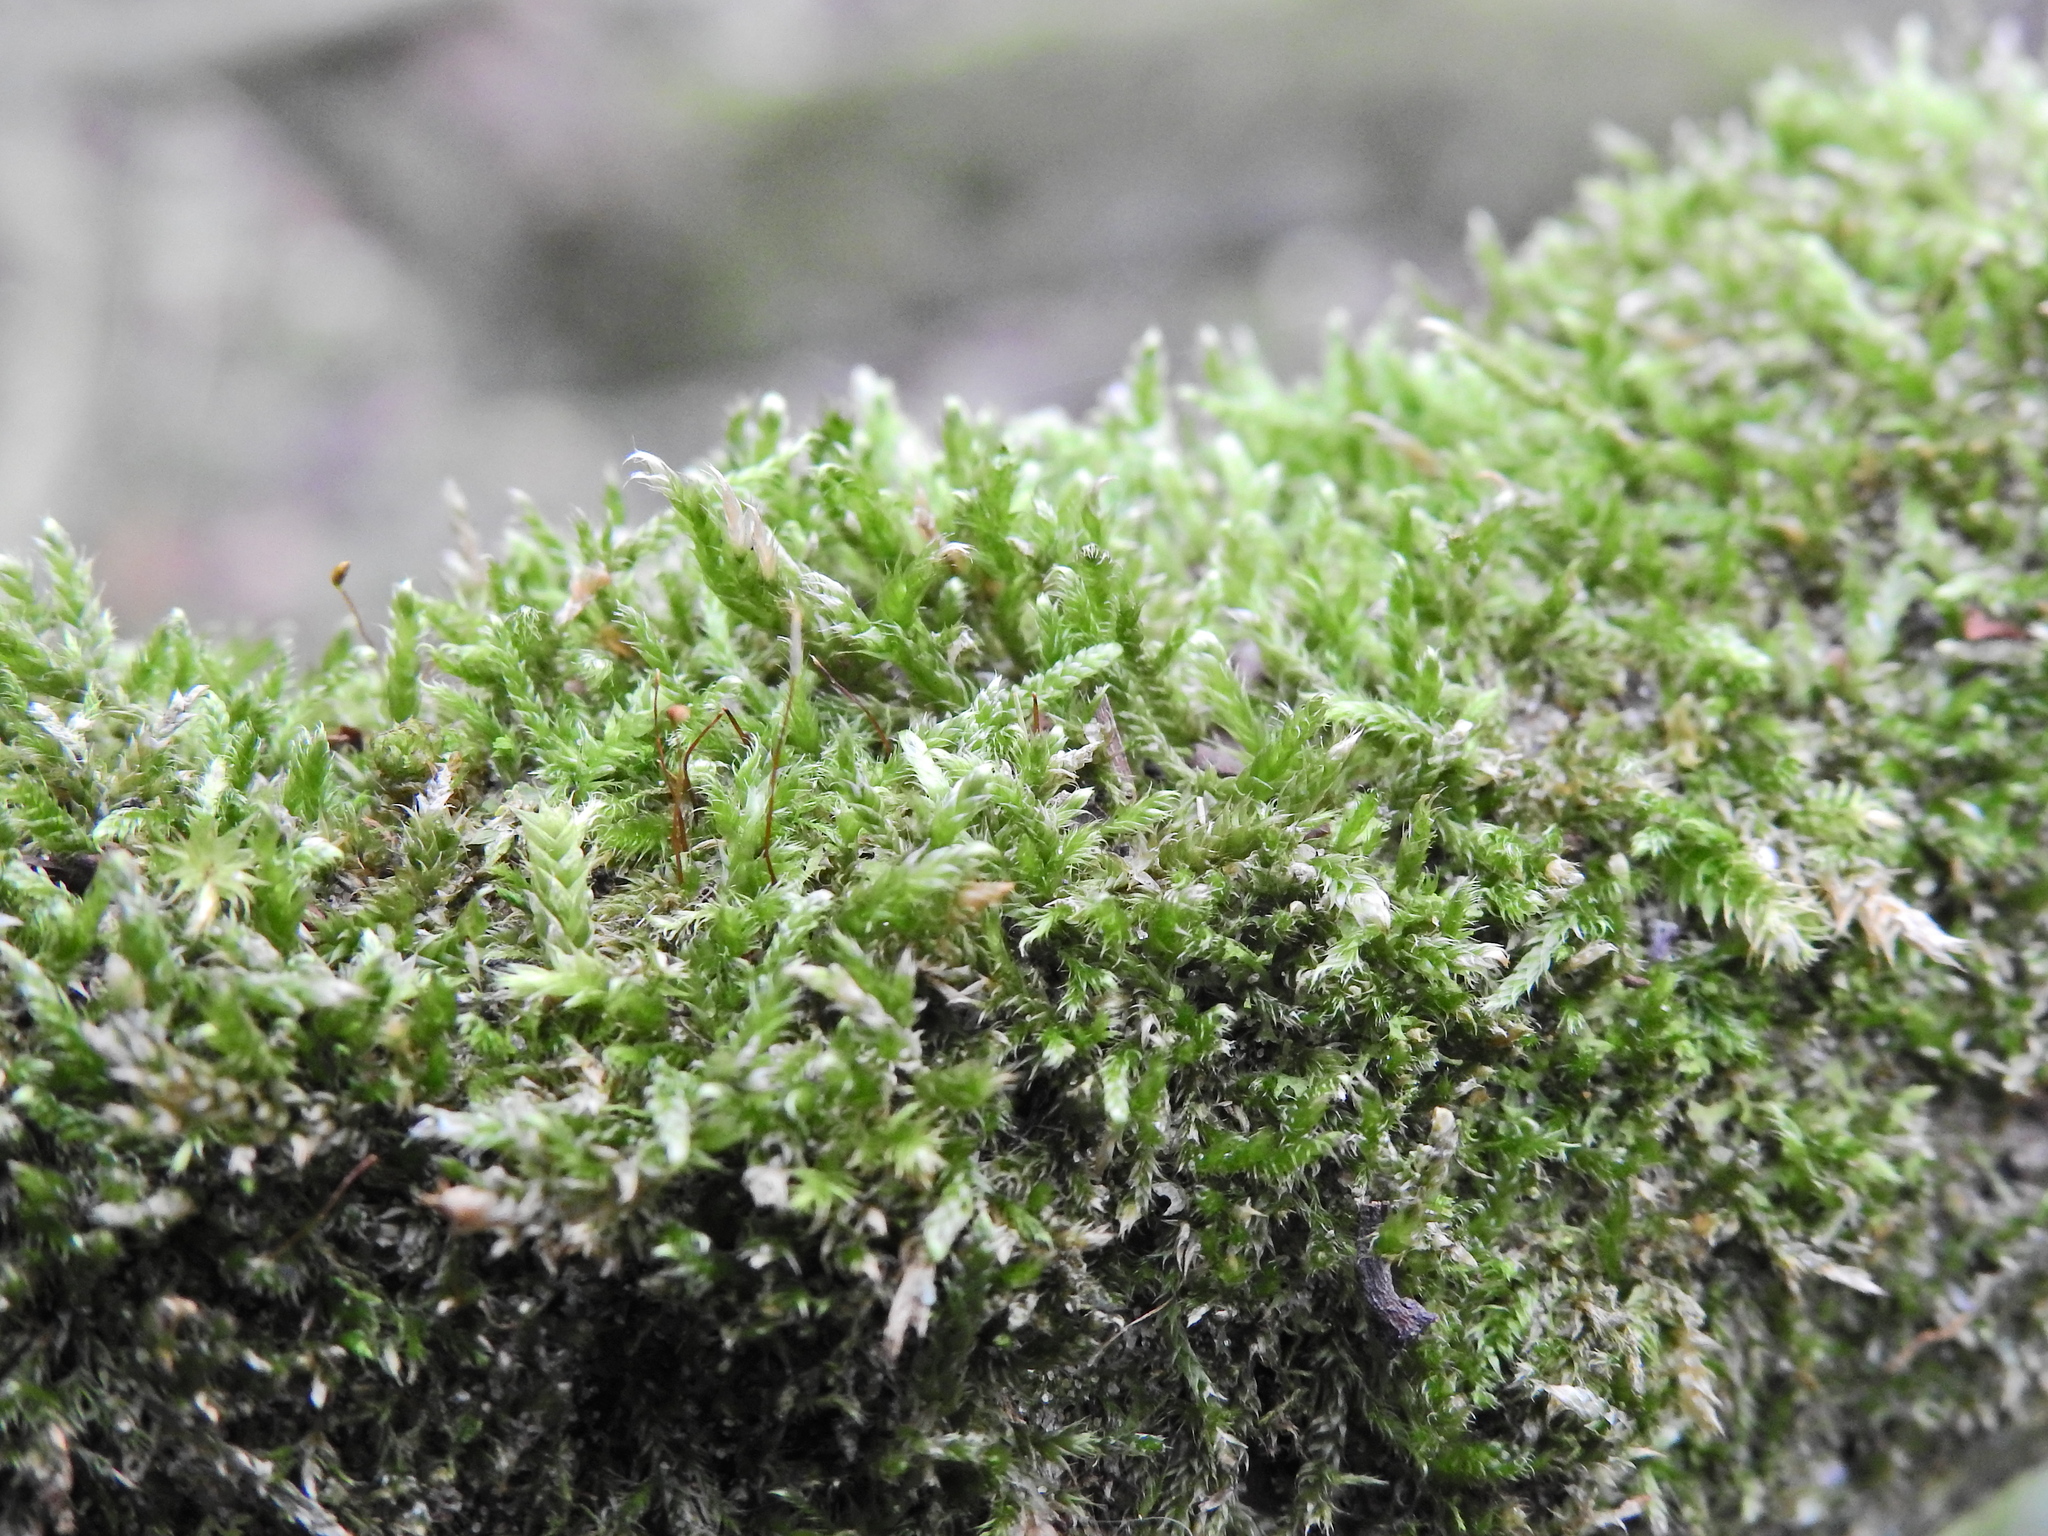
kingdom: Plantae
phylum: Bryophyta
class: Bryopsida
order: Hypnales
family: Hypnaceae
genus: Hypnum
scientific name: Hypnum cupressiforme
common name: Cypress-leaved plait-moss
